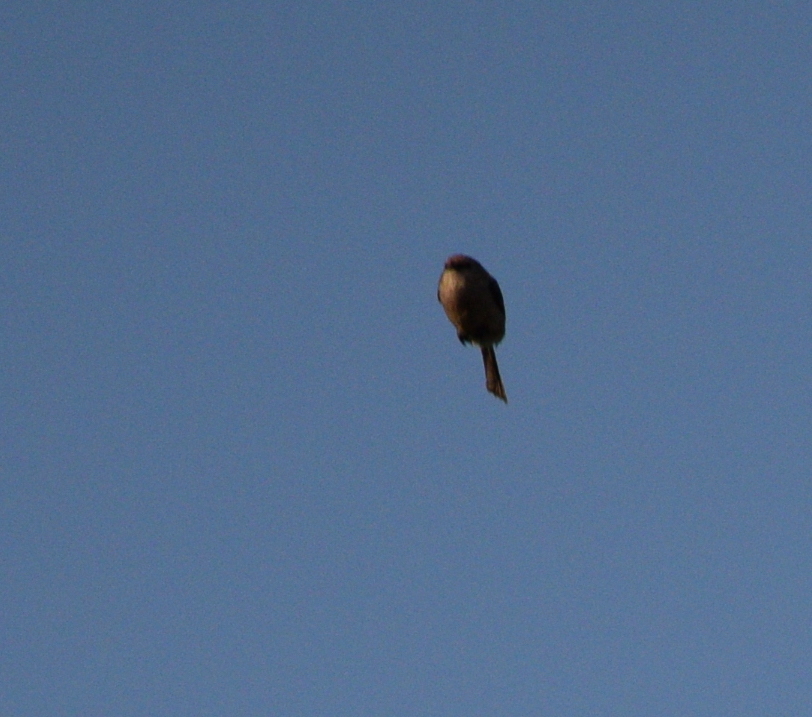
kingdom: Animalia
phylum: Chordata
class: Aves
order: Passeriformes
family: Aegithalidae
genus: Psaltriparus
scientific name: Psaltriparus minimus
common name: American bushtit
